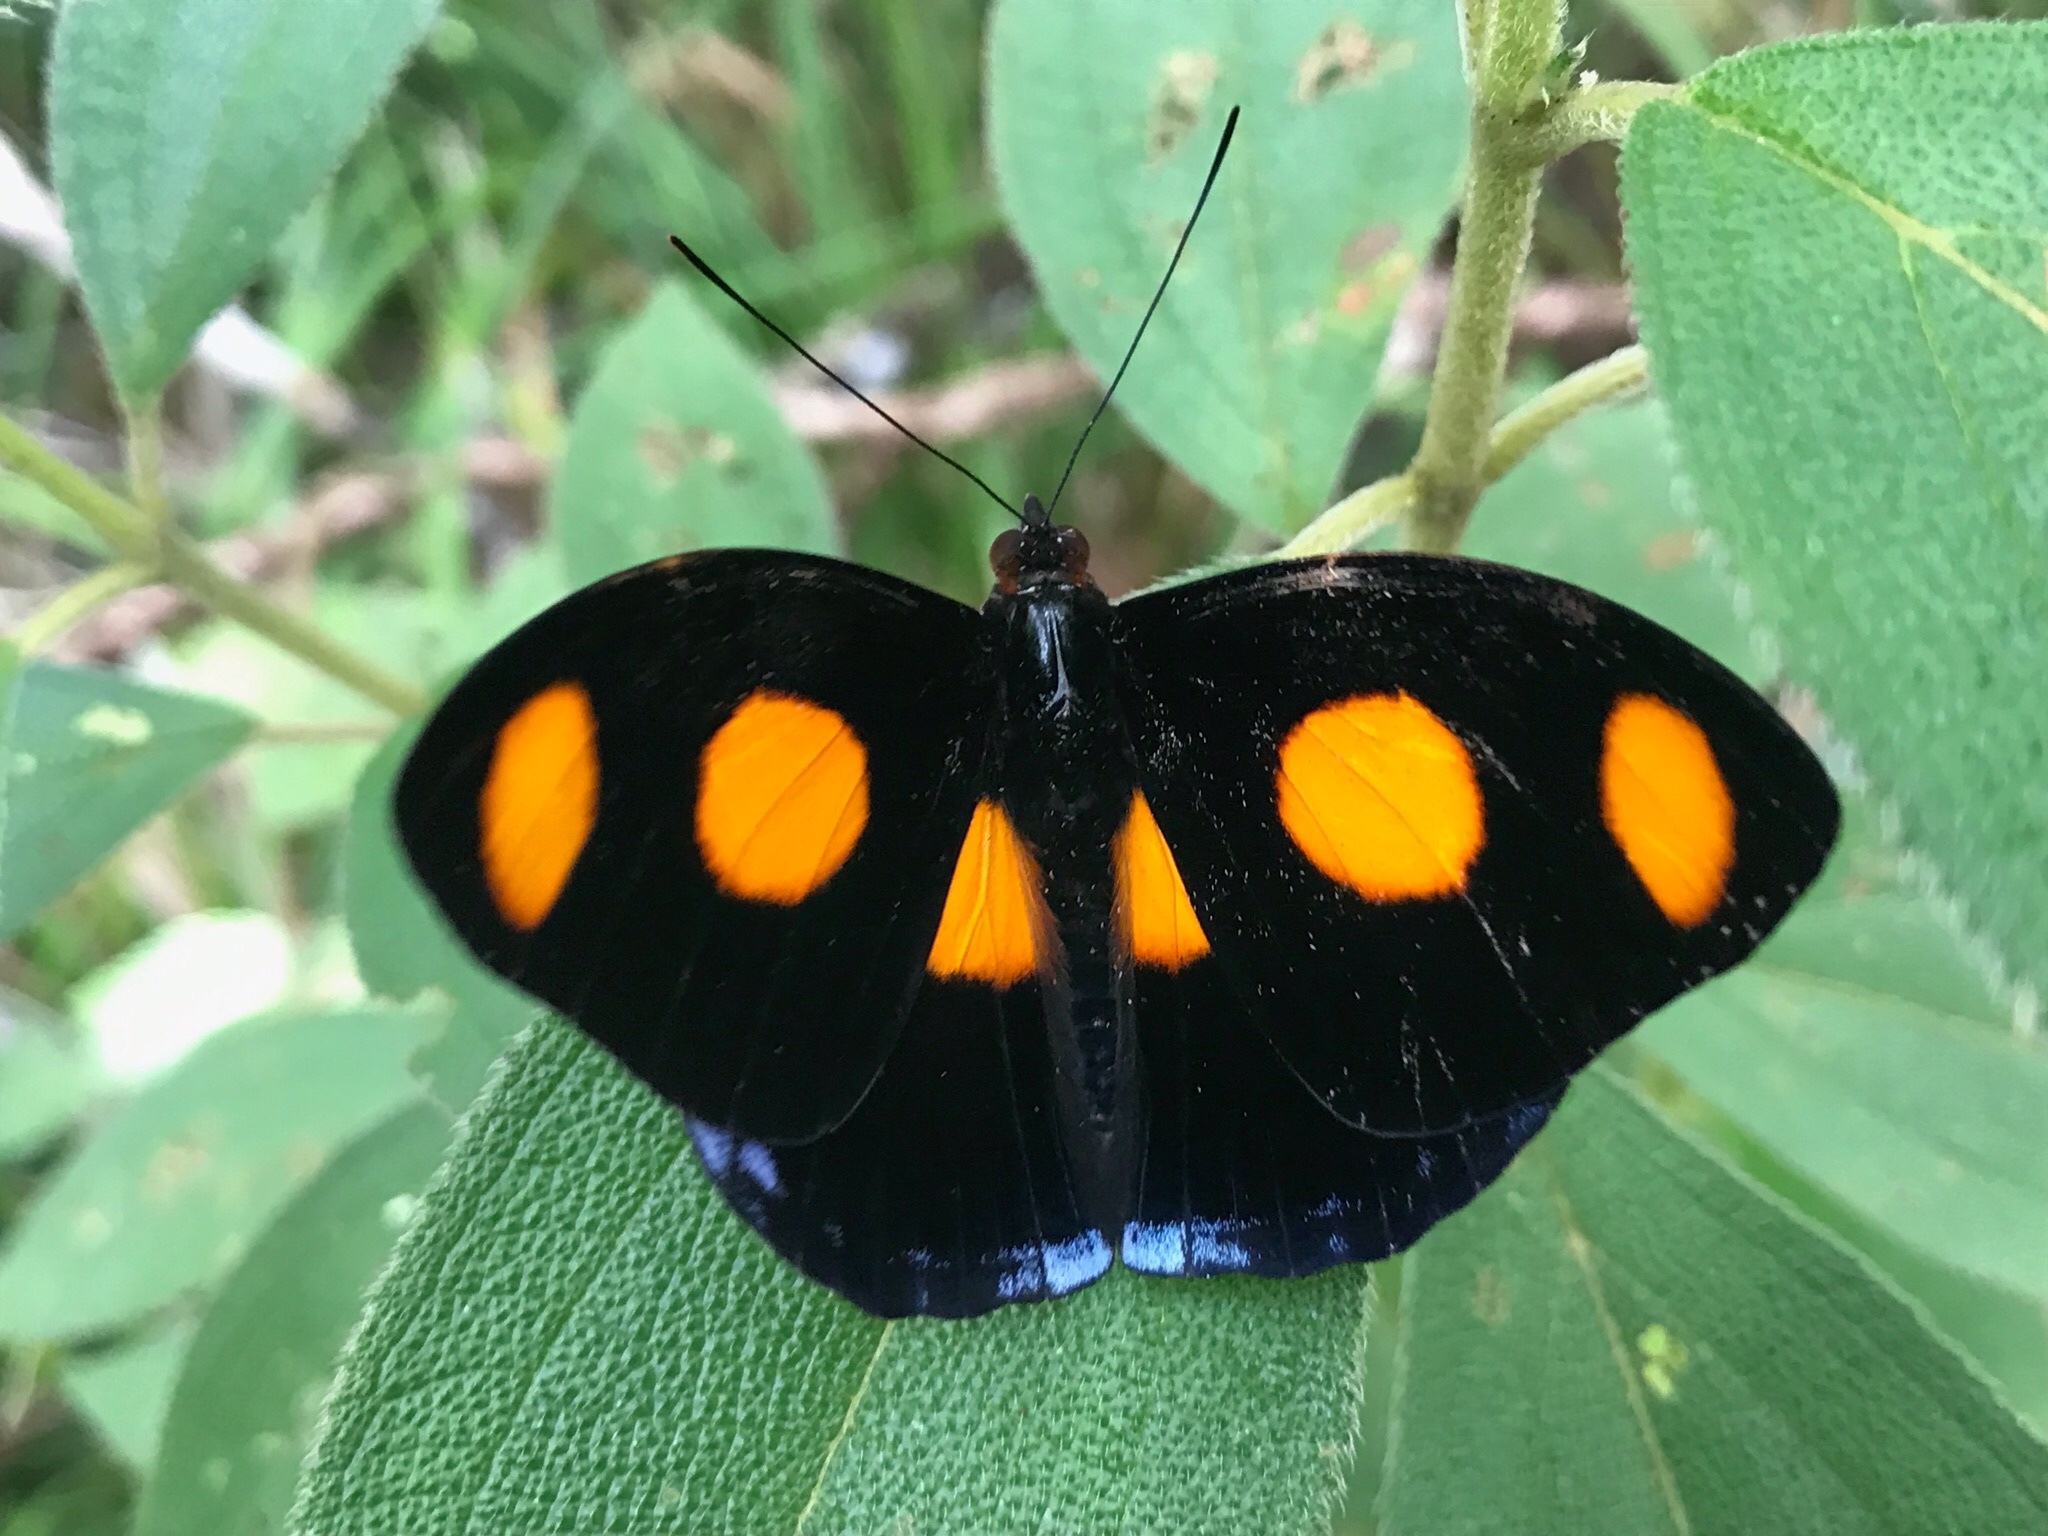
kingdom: Animalia
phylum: Arthropoda
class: Insecta
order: Lepidoptera
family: Nymphalidae
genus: Catonephele
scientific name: Catonephele numilia
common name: Blue-frosted banner
